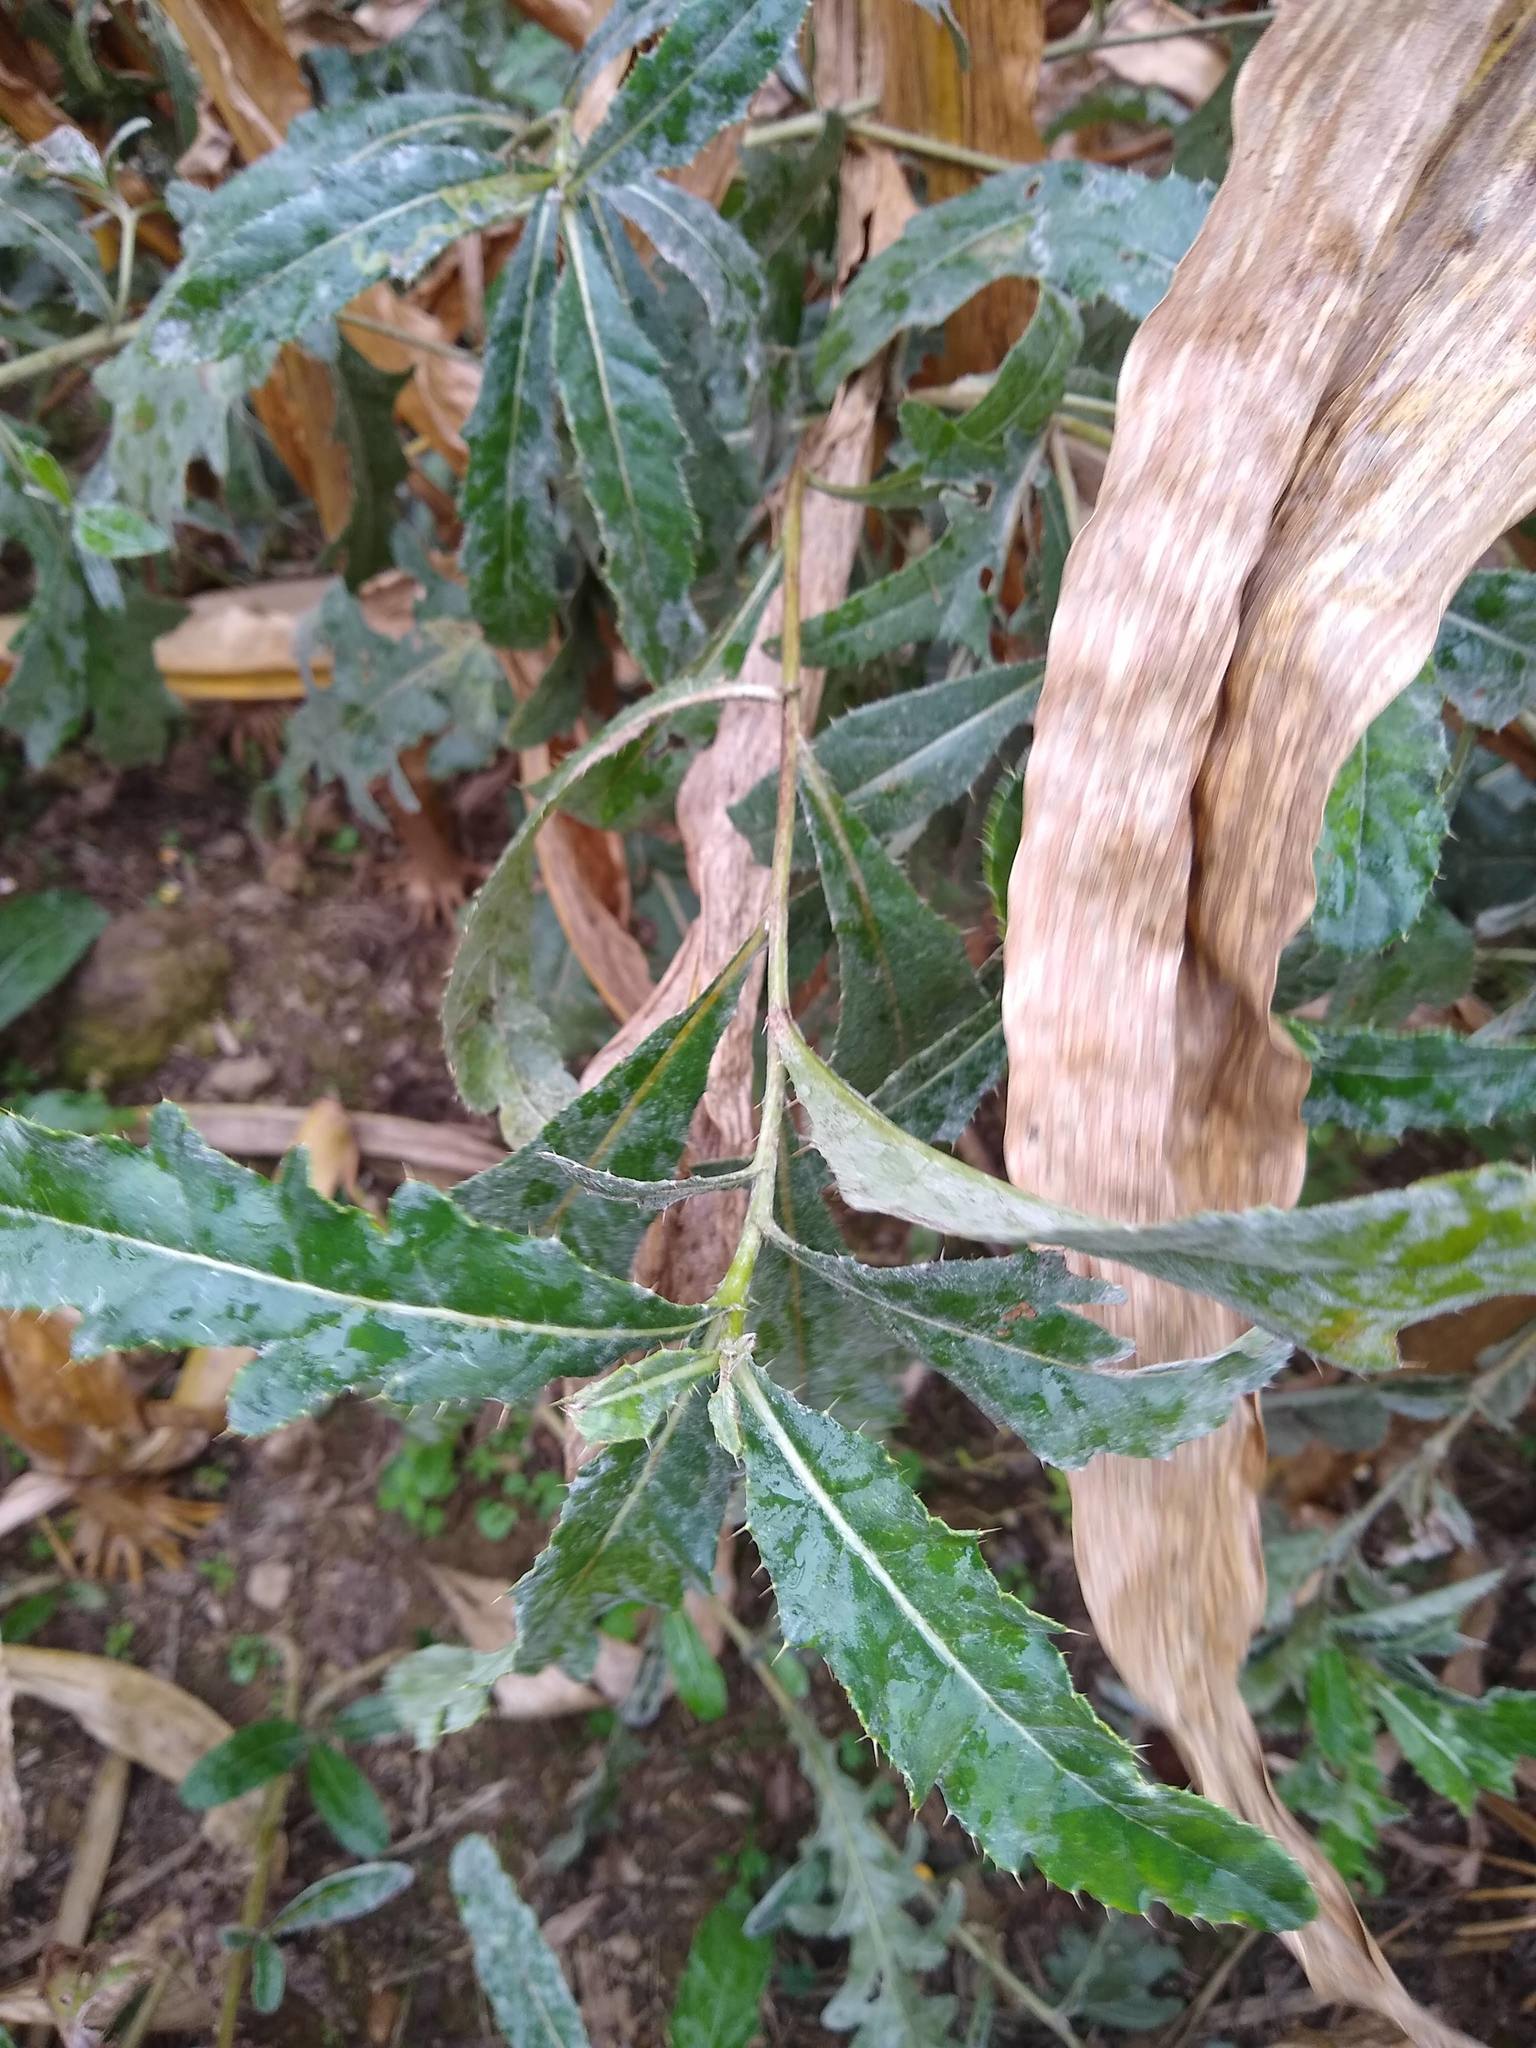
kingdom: Plantae
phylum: Tracheophyta
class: Magnoliopsida
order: Asterales
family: Asteraceae
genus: Cirsium
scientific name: Cirsium arvense
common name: Creeping thistle
